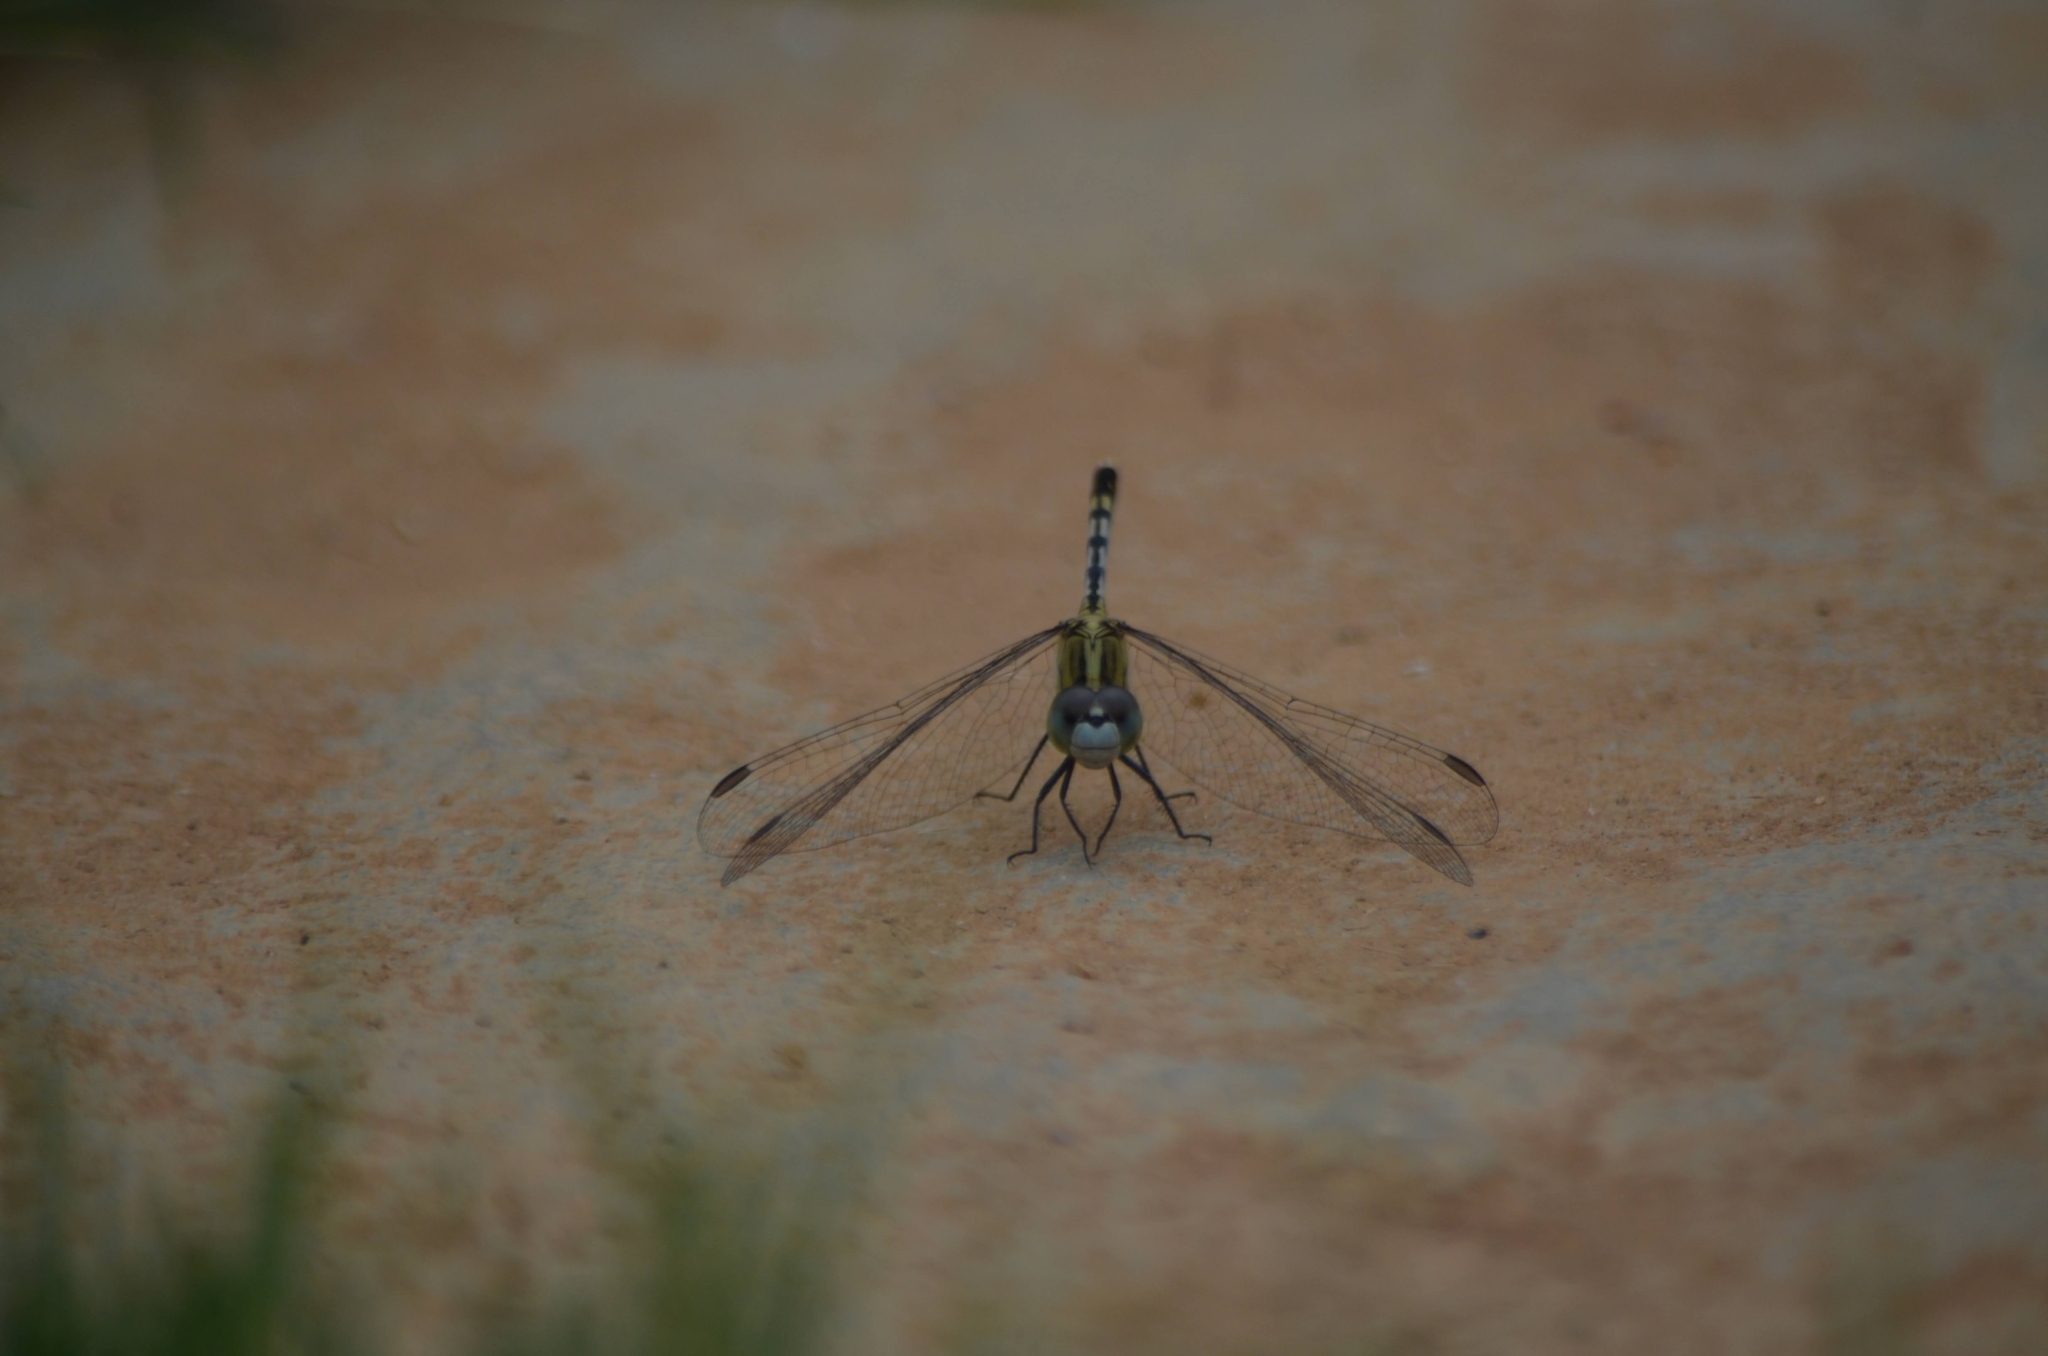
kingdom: Animalia
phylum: Arthropoda
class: Insecta
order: Odonata
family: Libellulidae
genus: Diplacodes
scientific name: Diplacodes trivialis
